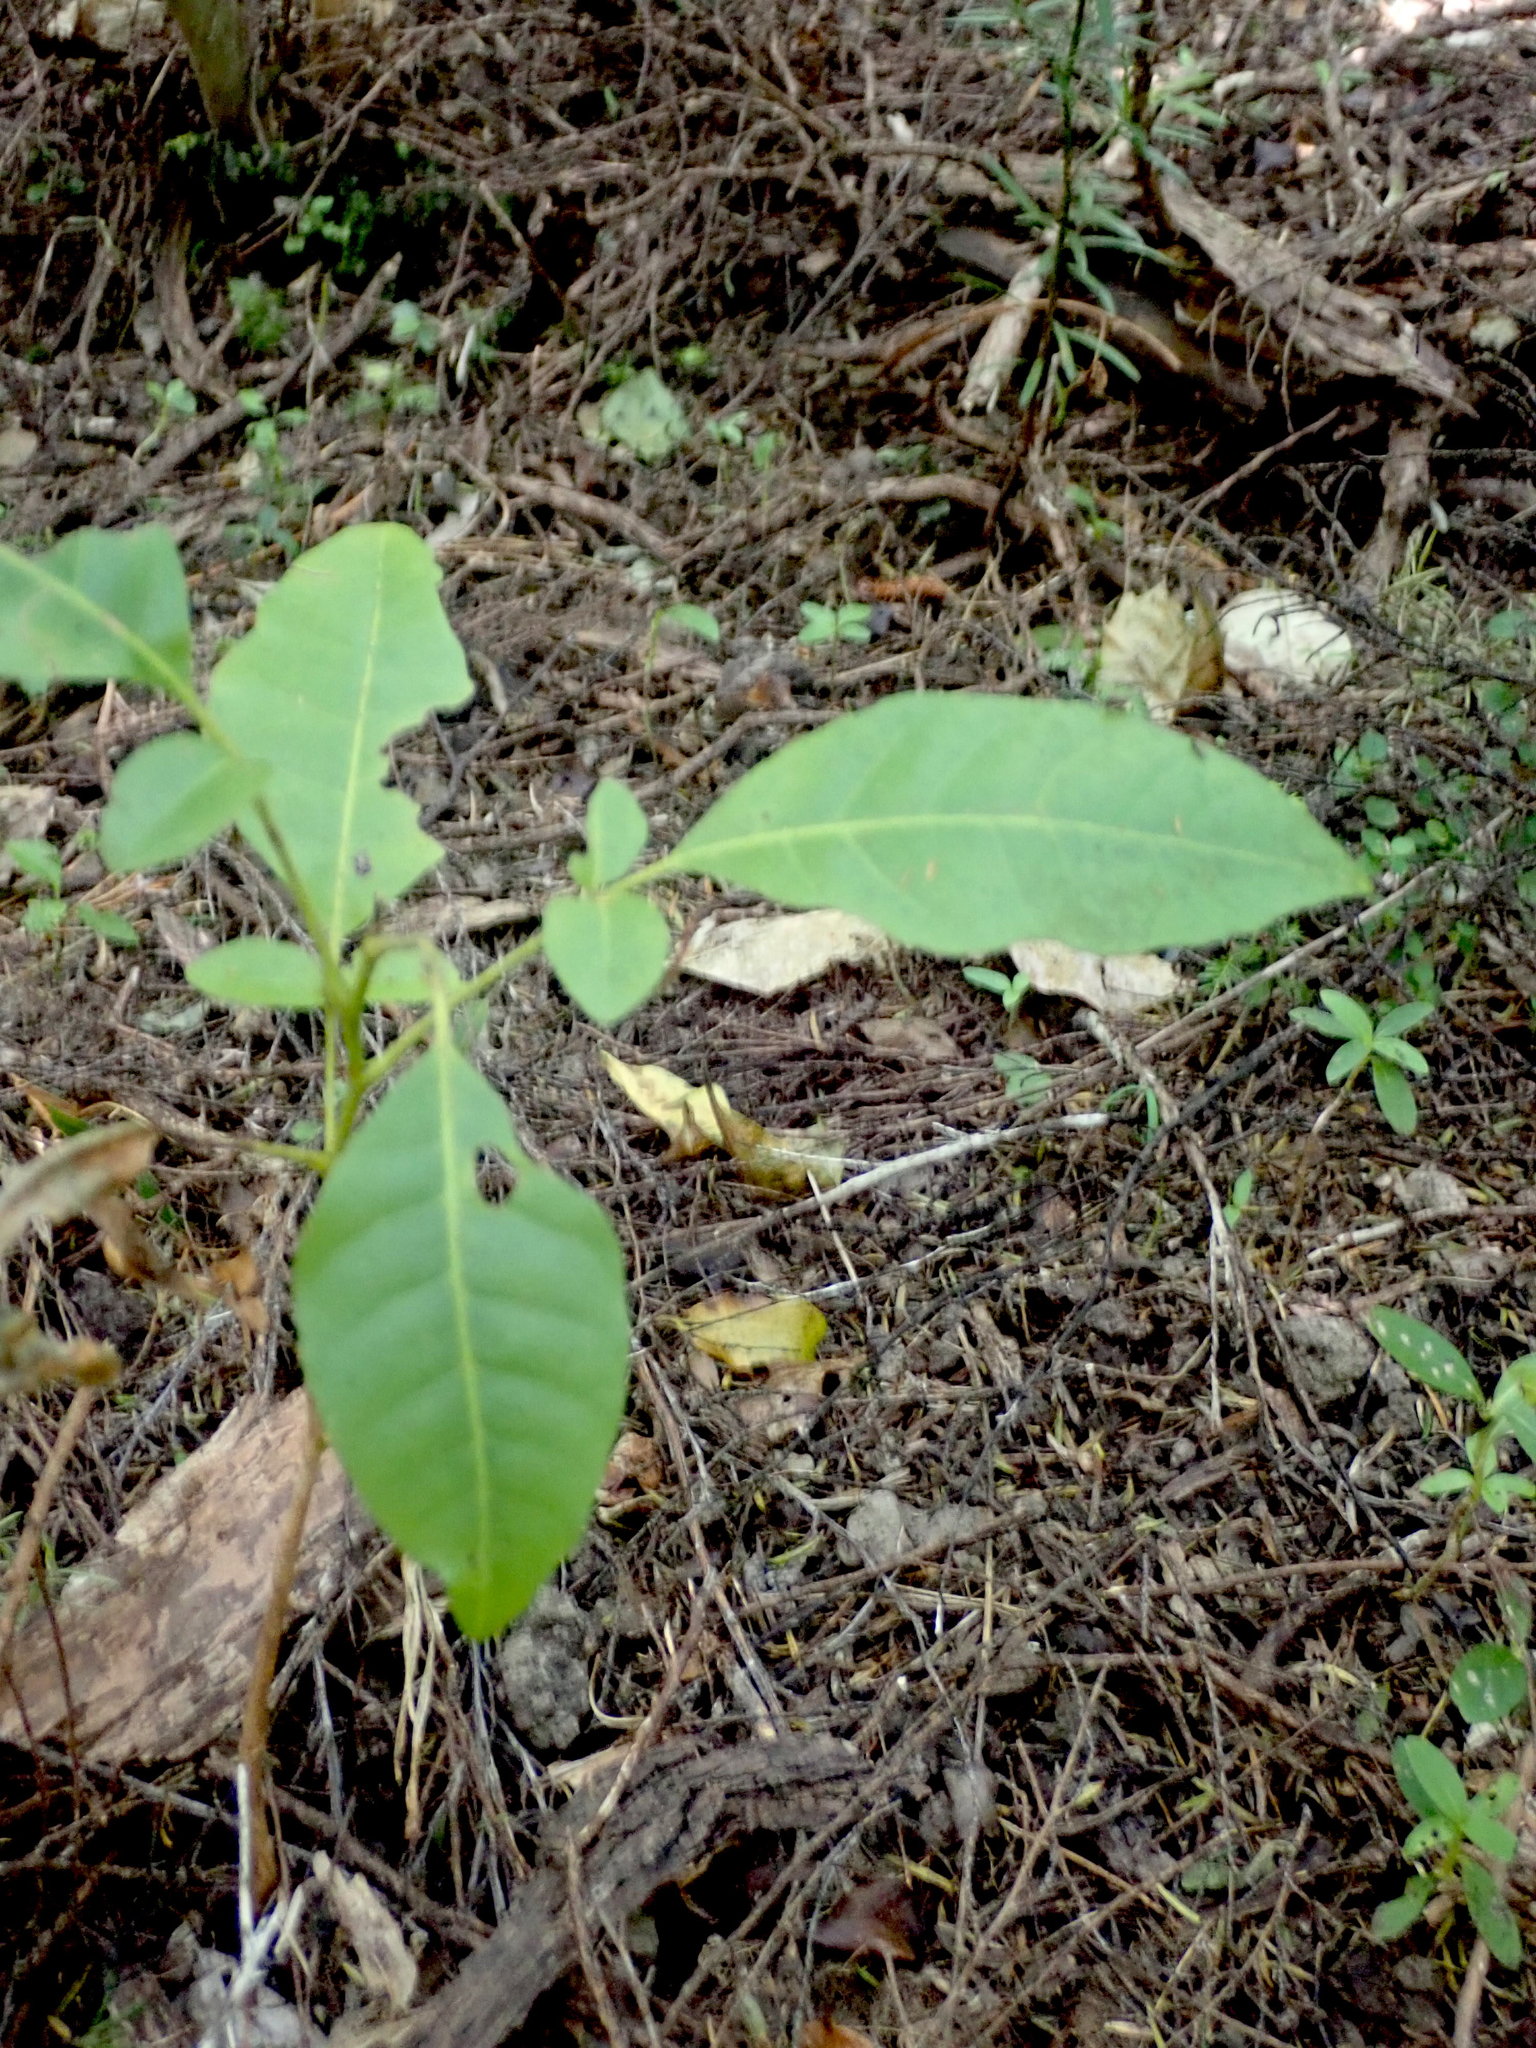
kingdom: Plantae
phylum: Tracheophyta
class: Magnoliopsida
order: Sapindales
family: Meliaceae
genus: Didymocheton
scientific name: Didymocheton spectabilis
